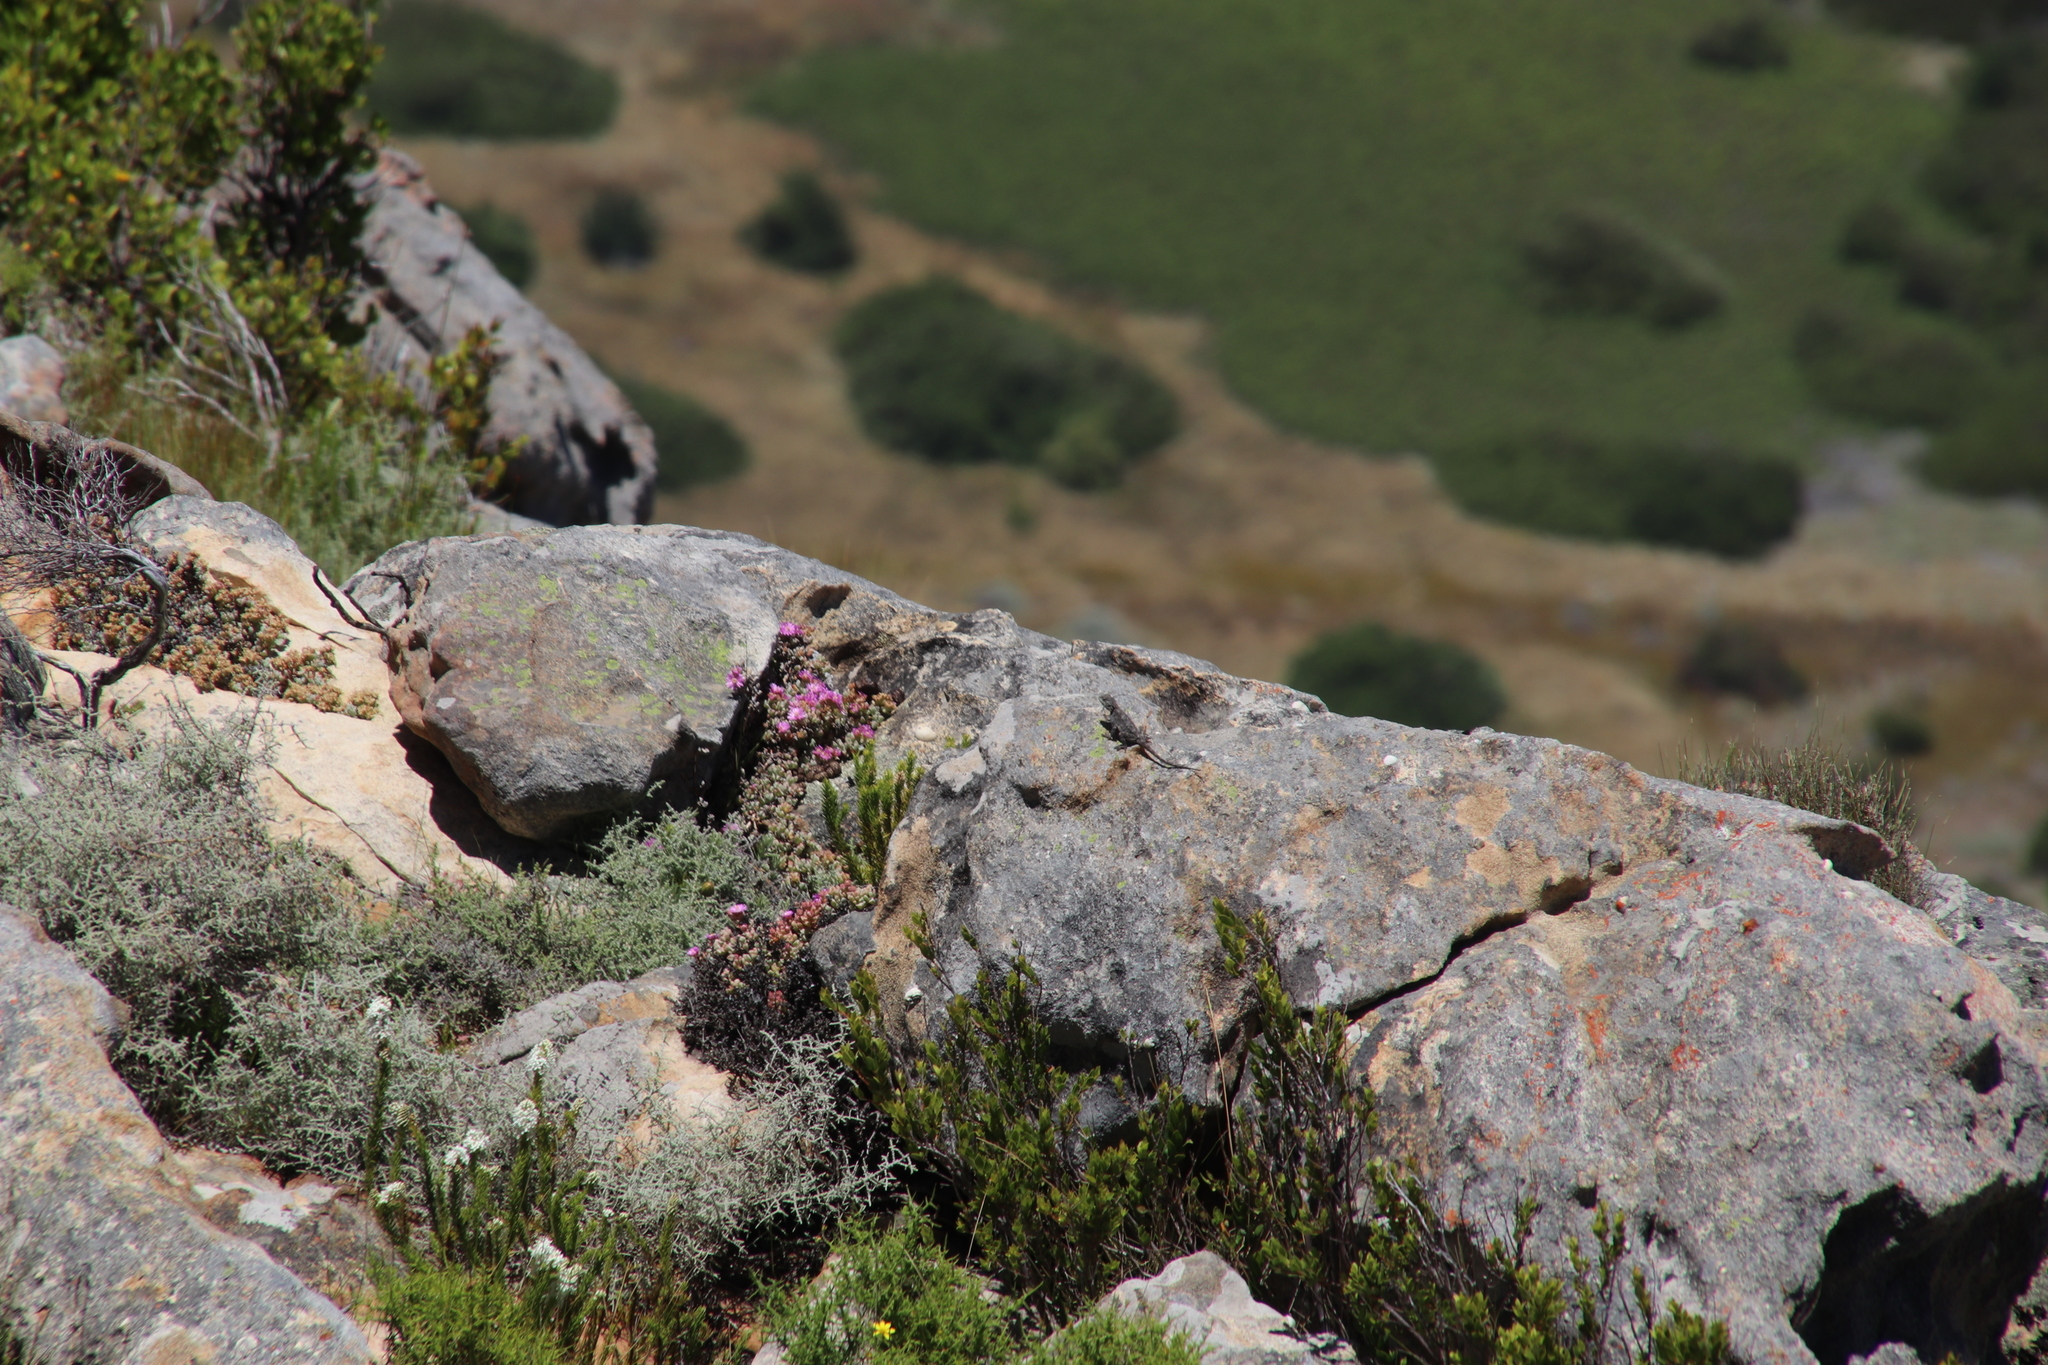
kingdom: Plantae
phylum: Tracheophyta
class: Magnoliopsida
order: Caryophyllales
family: Aizoaceae
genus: Oscularia
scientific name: Oscularia deltoides
